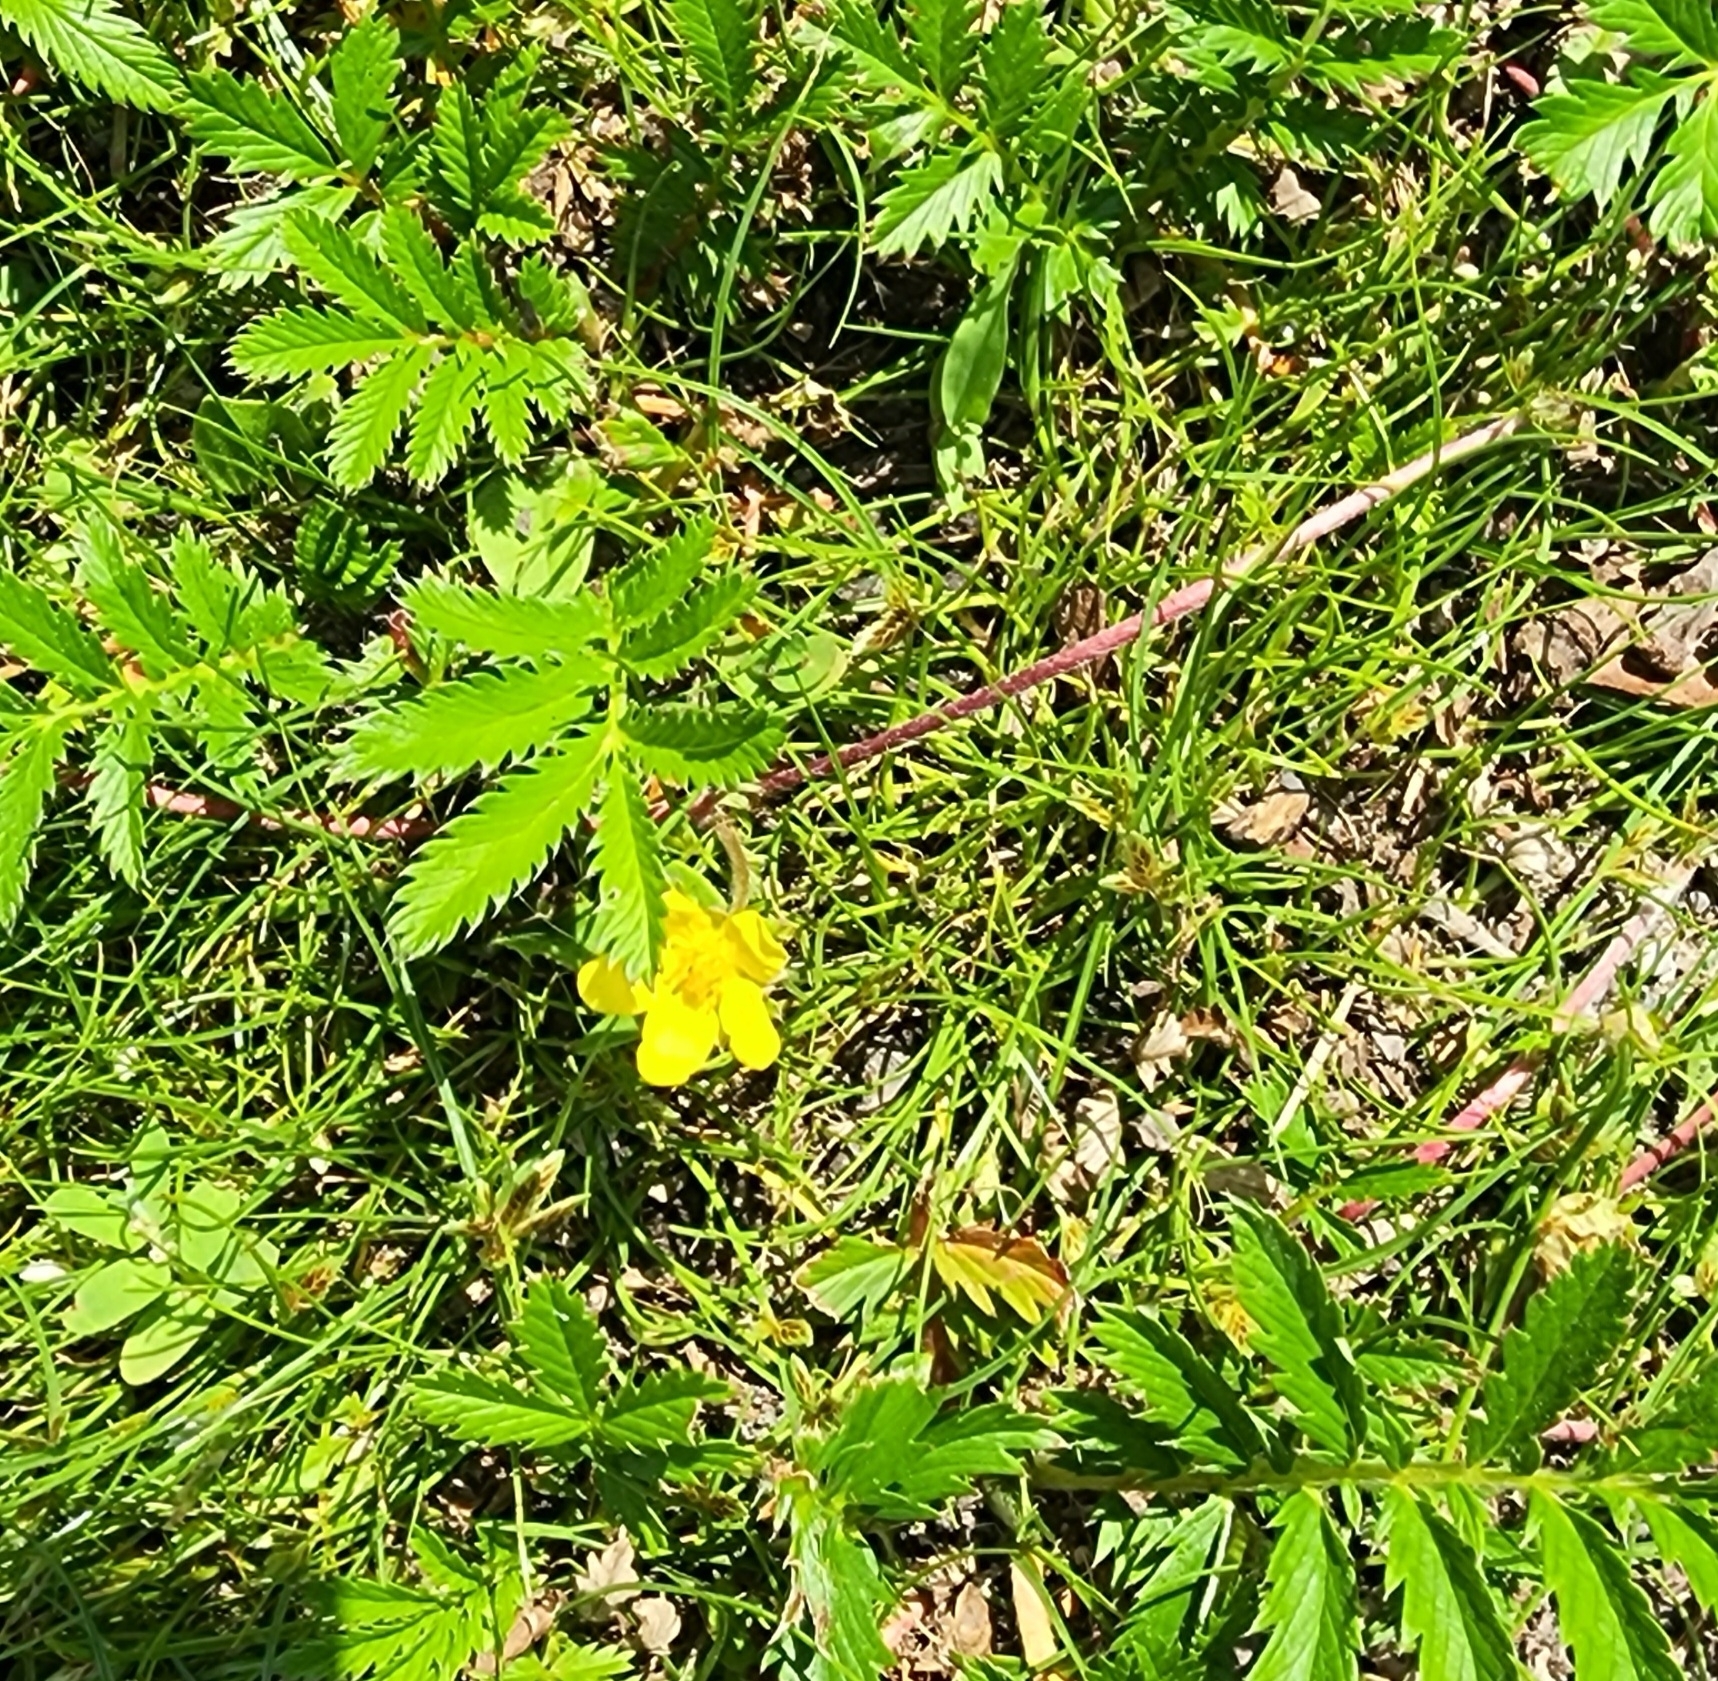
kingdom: Plantae
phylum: Tracheophyta
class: Magnoliopsida
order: Rosales
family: Rosaceae
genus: Argentina
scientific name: Argentina anserina
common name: Common silverweed
